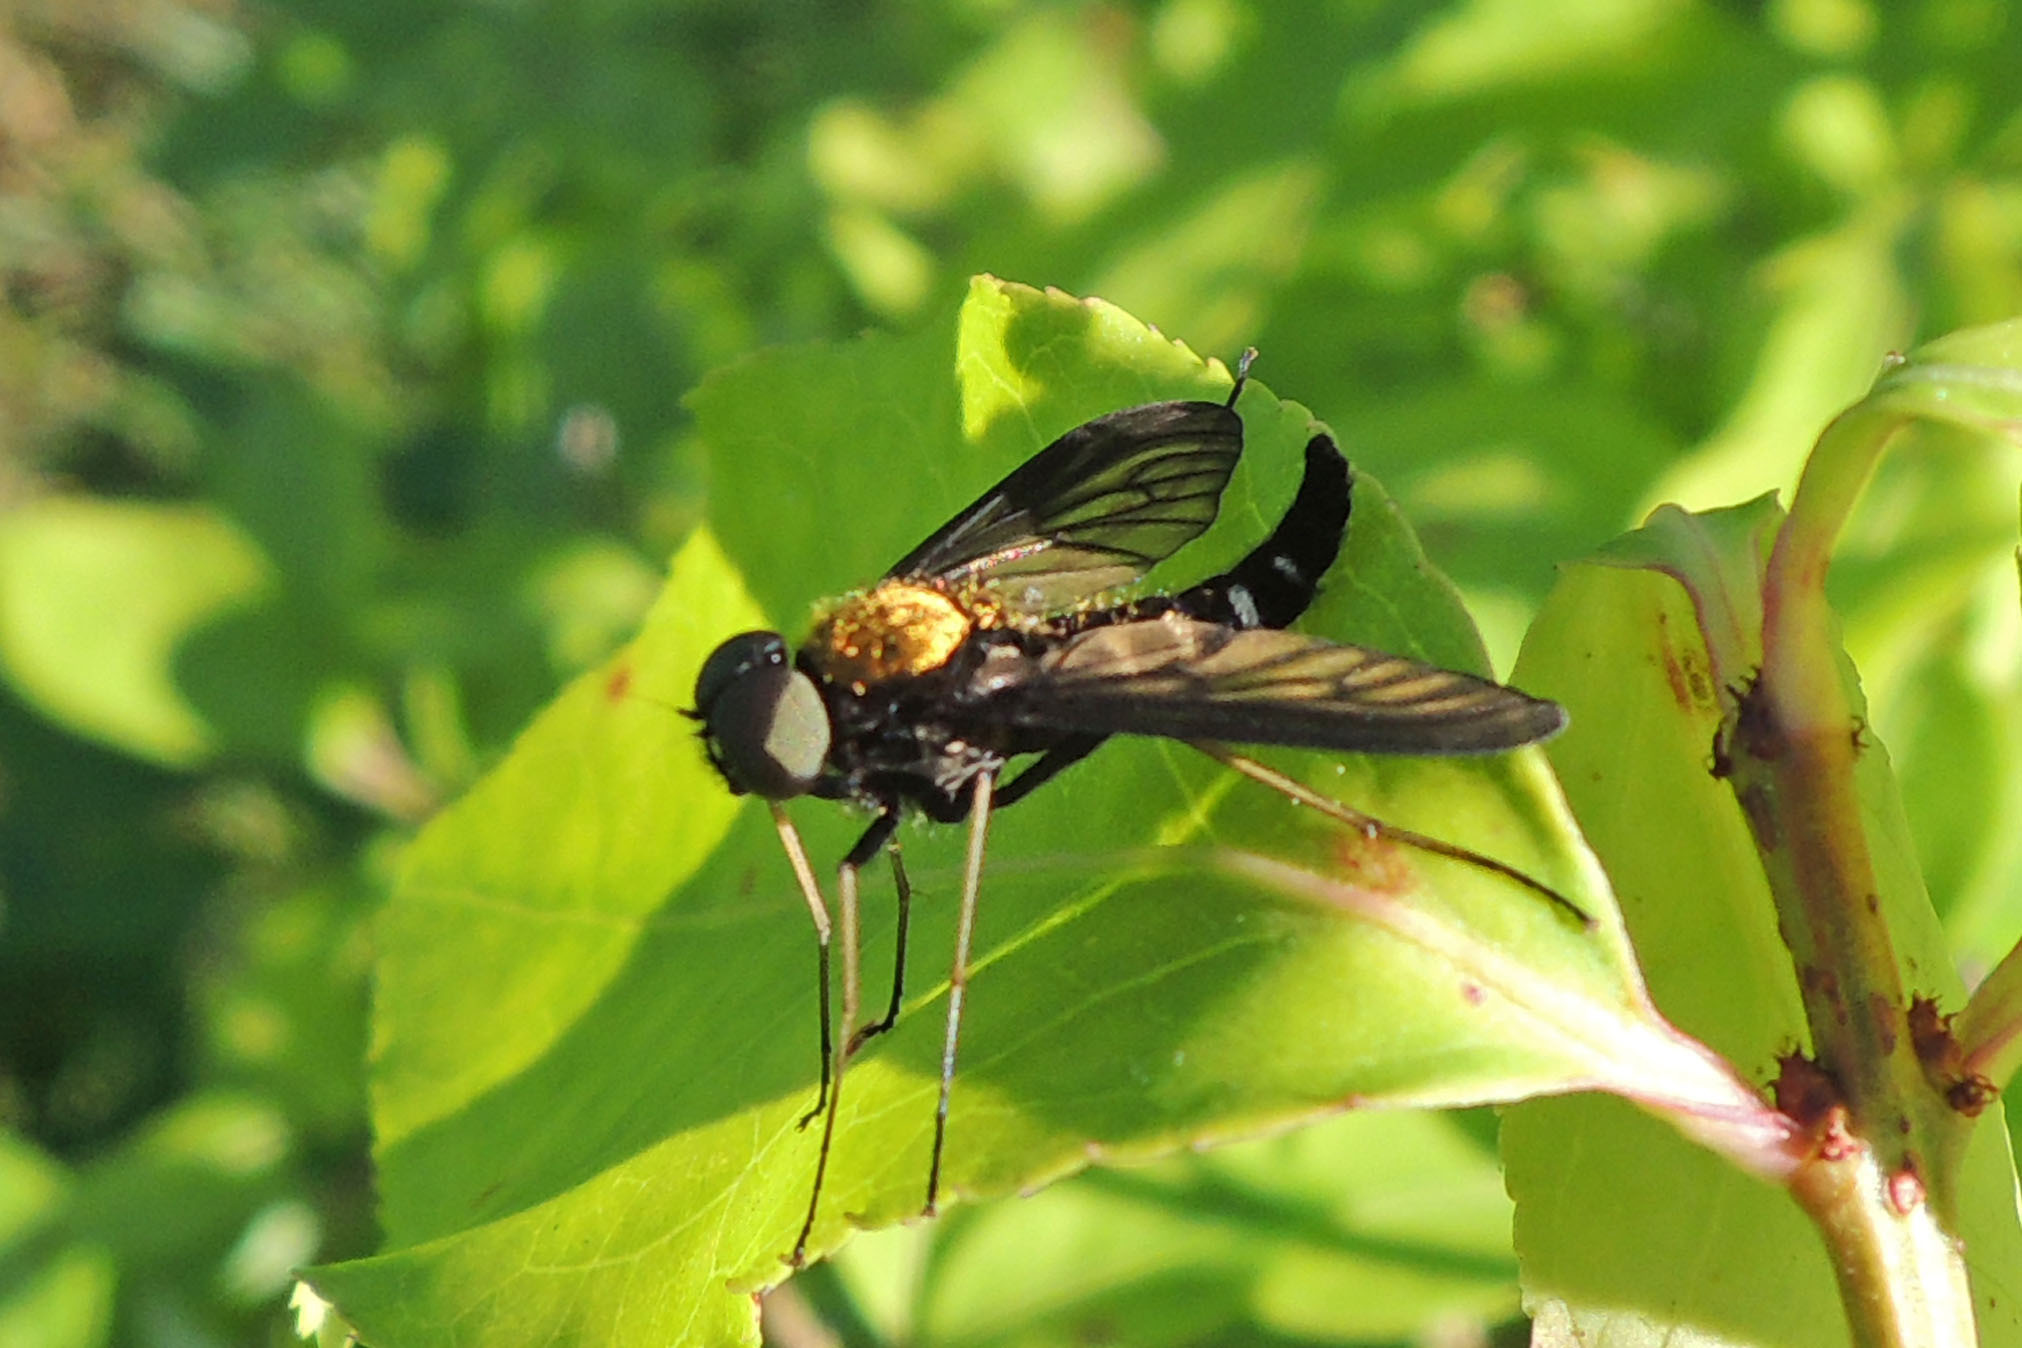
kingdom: Animalia
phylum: Arthropoda
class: Insecta
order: Diptera
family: Rhagionidae
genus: Chrysopilus
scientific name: Chrysopilus thoracicus
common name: Golden-backed snipe fly
